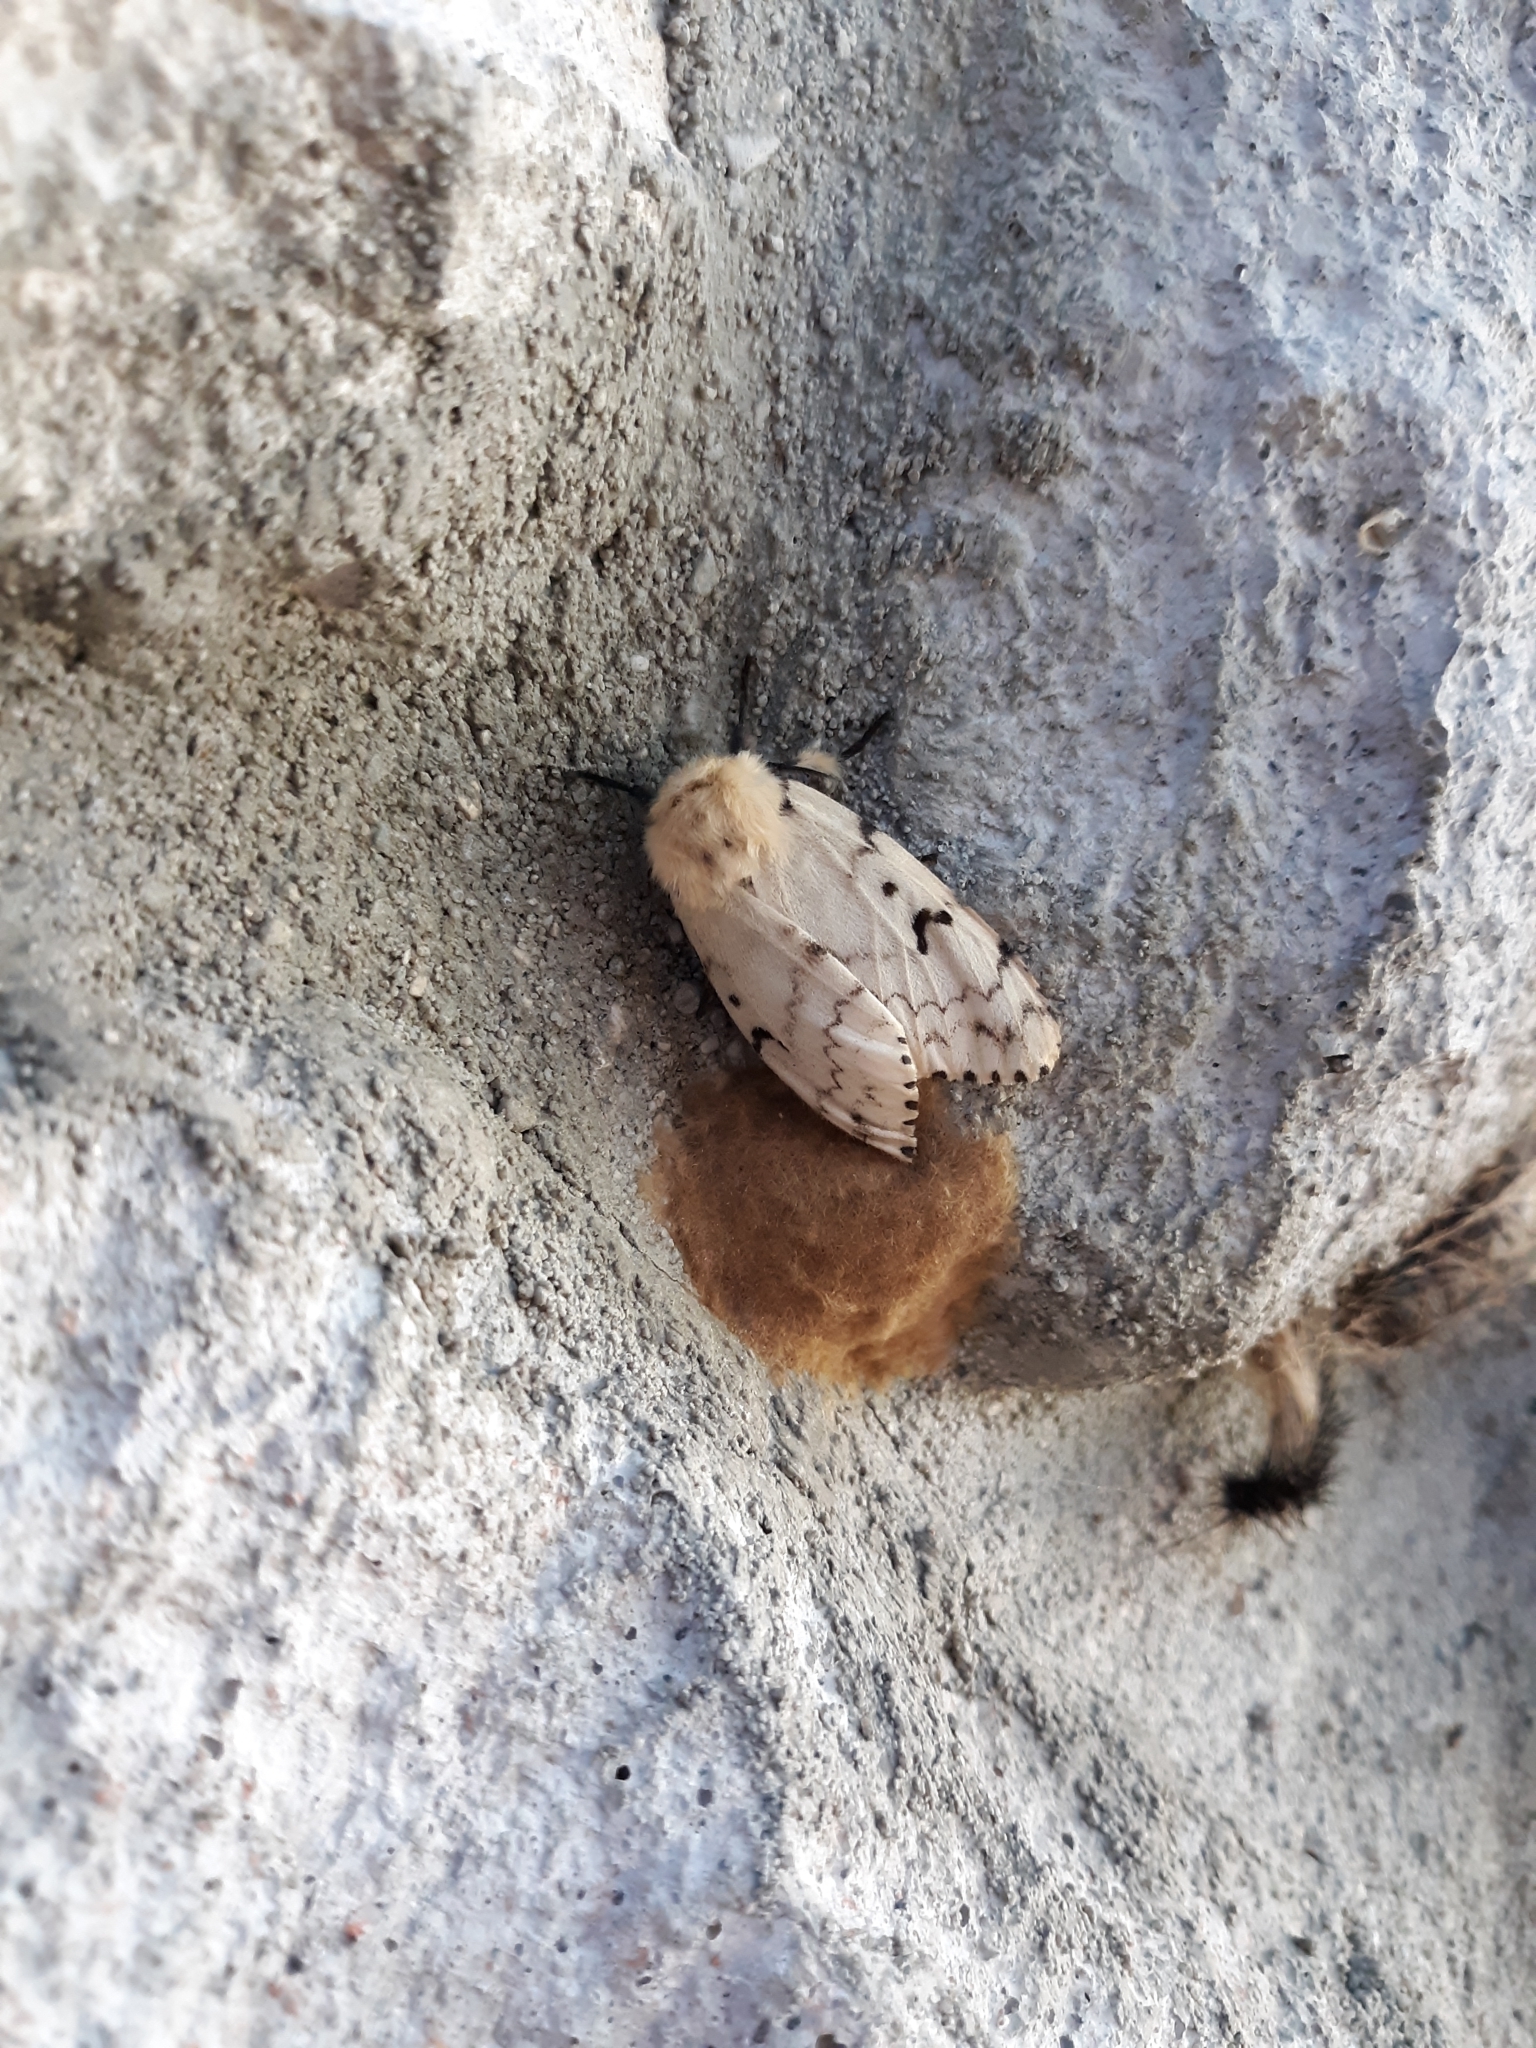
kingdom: Animalia
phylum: Arthropoda
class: Insecta
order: Lepidoptera
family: Erebidae
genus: Lymantria
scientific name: Lymantria dispar
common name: Gypsy moth
